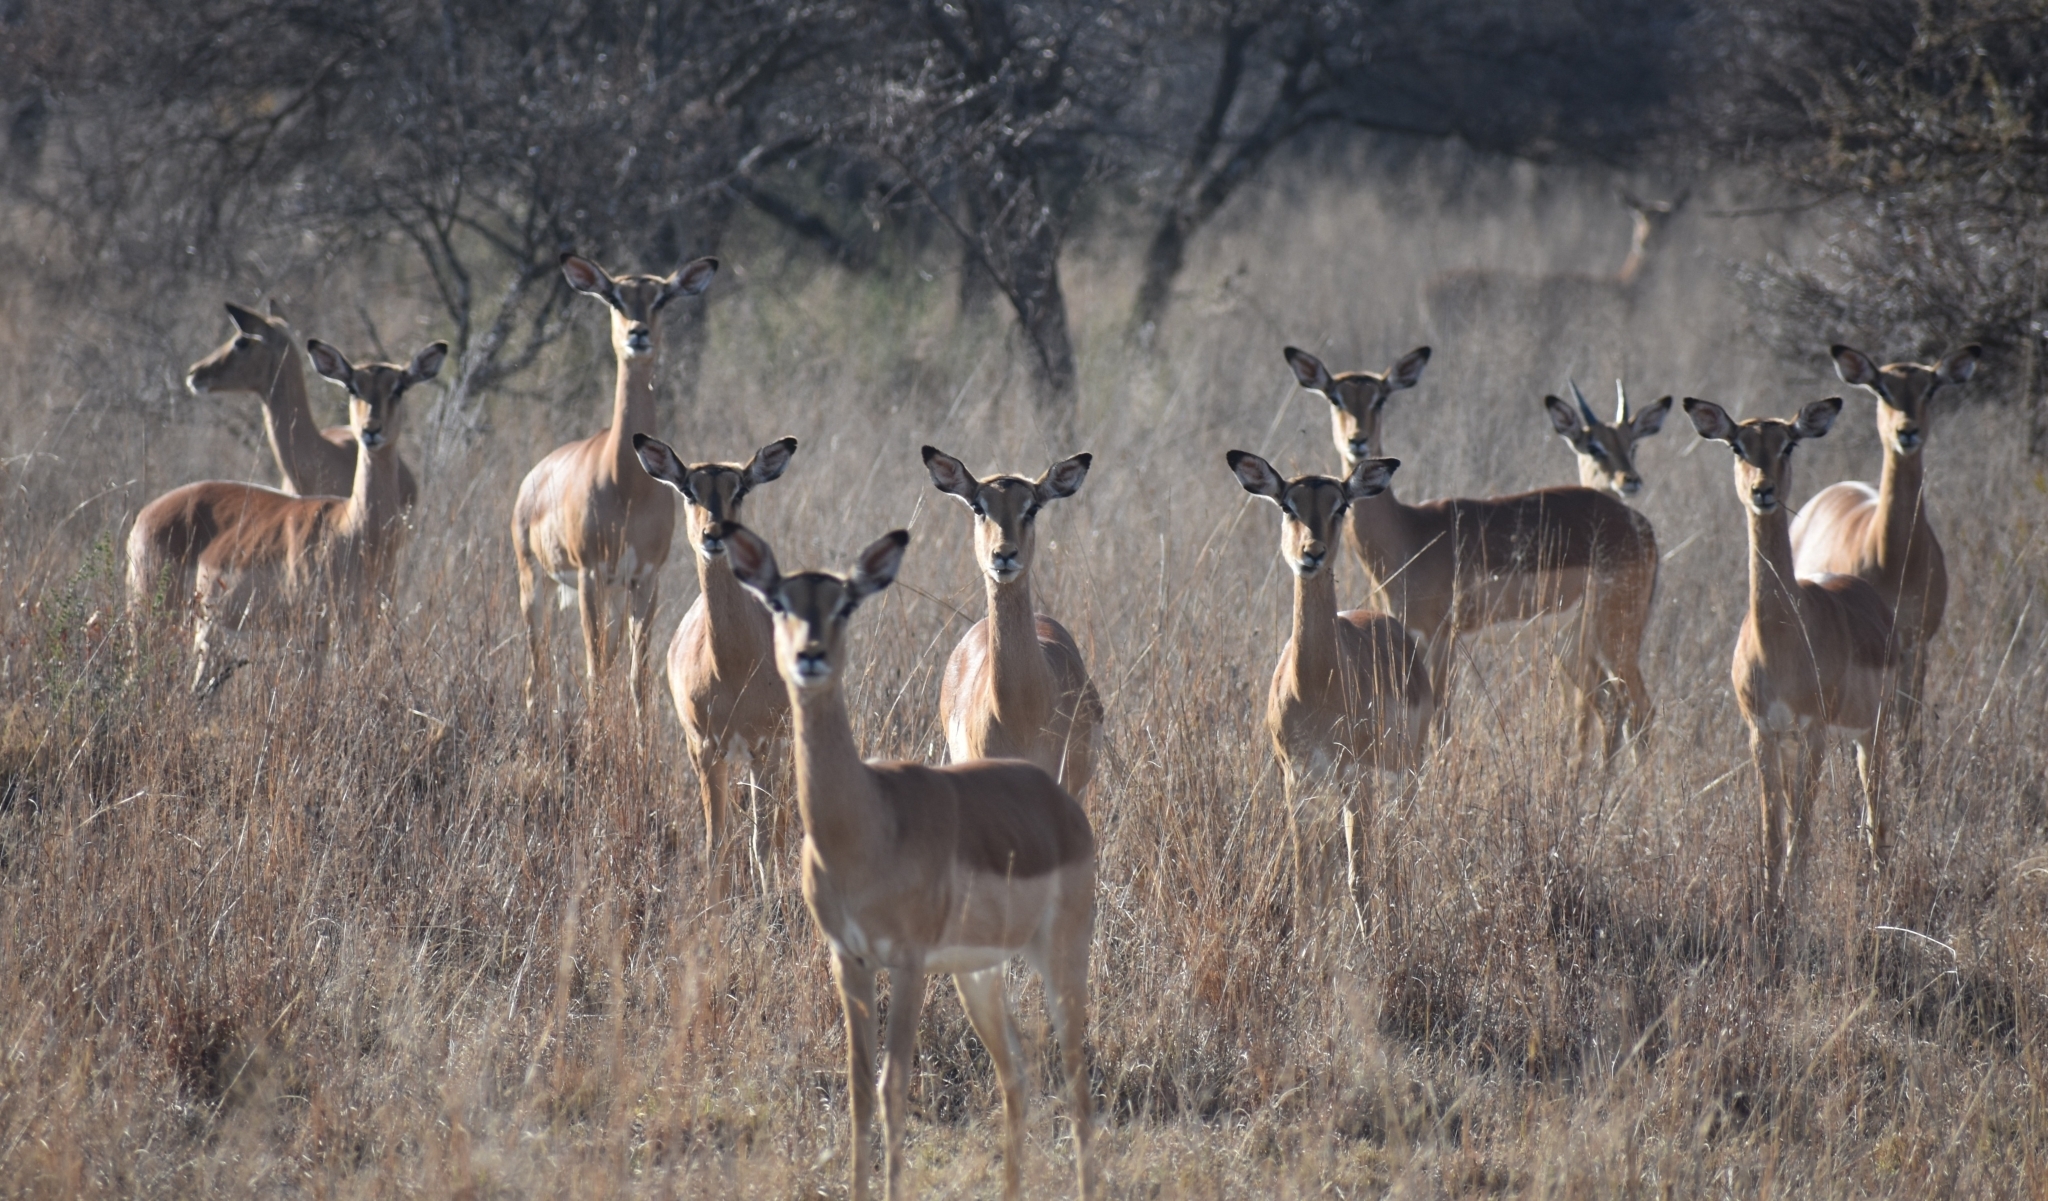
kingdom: Animalia
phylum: Chordata
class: Mammalia
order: Artiodactyla
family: Bovidae
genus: Aepyceros
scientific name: Aepyceros melampus
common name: Impala
